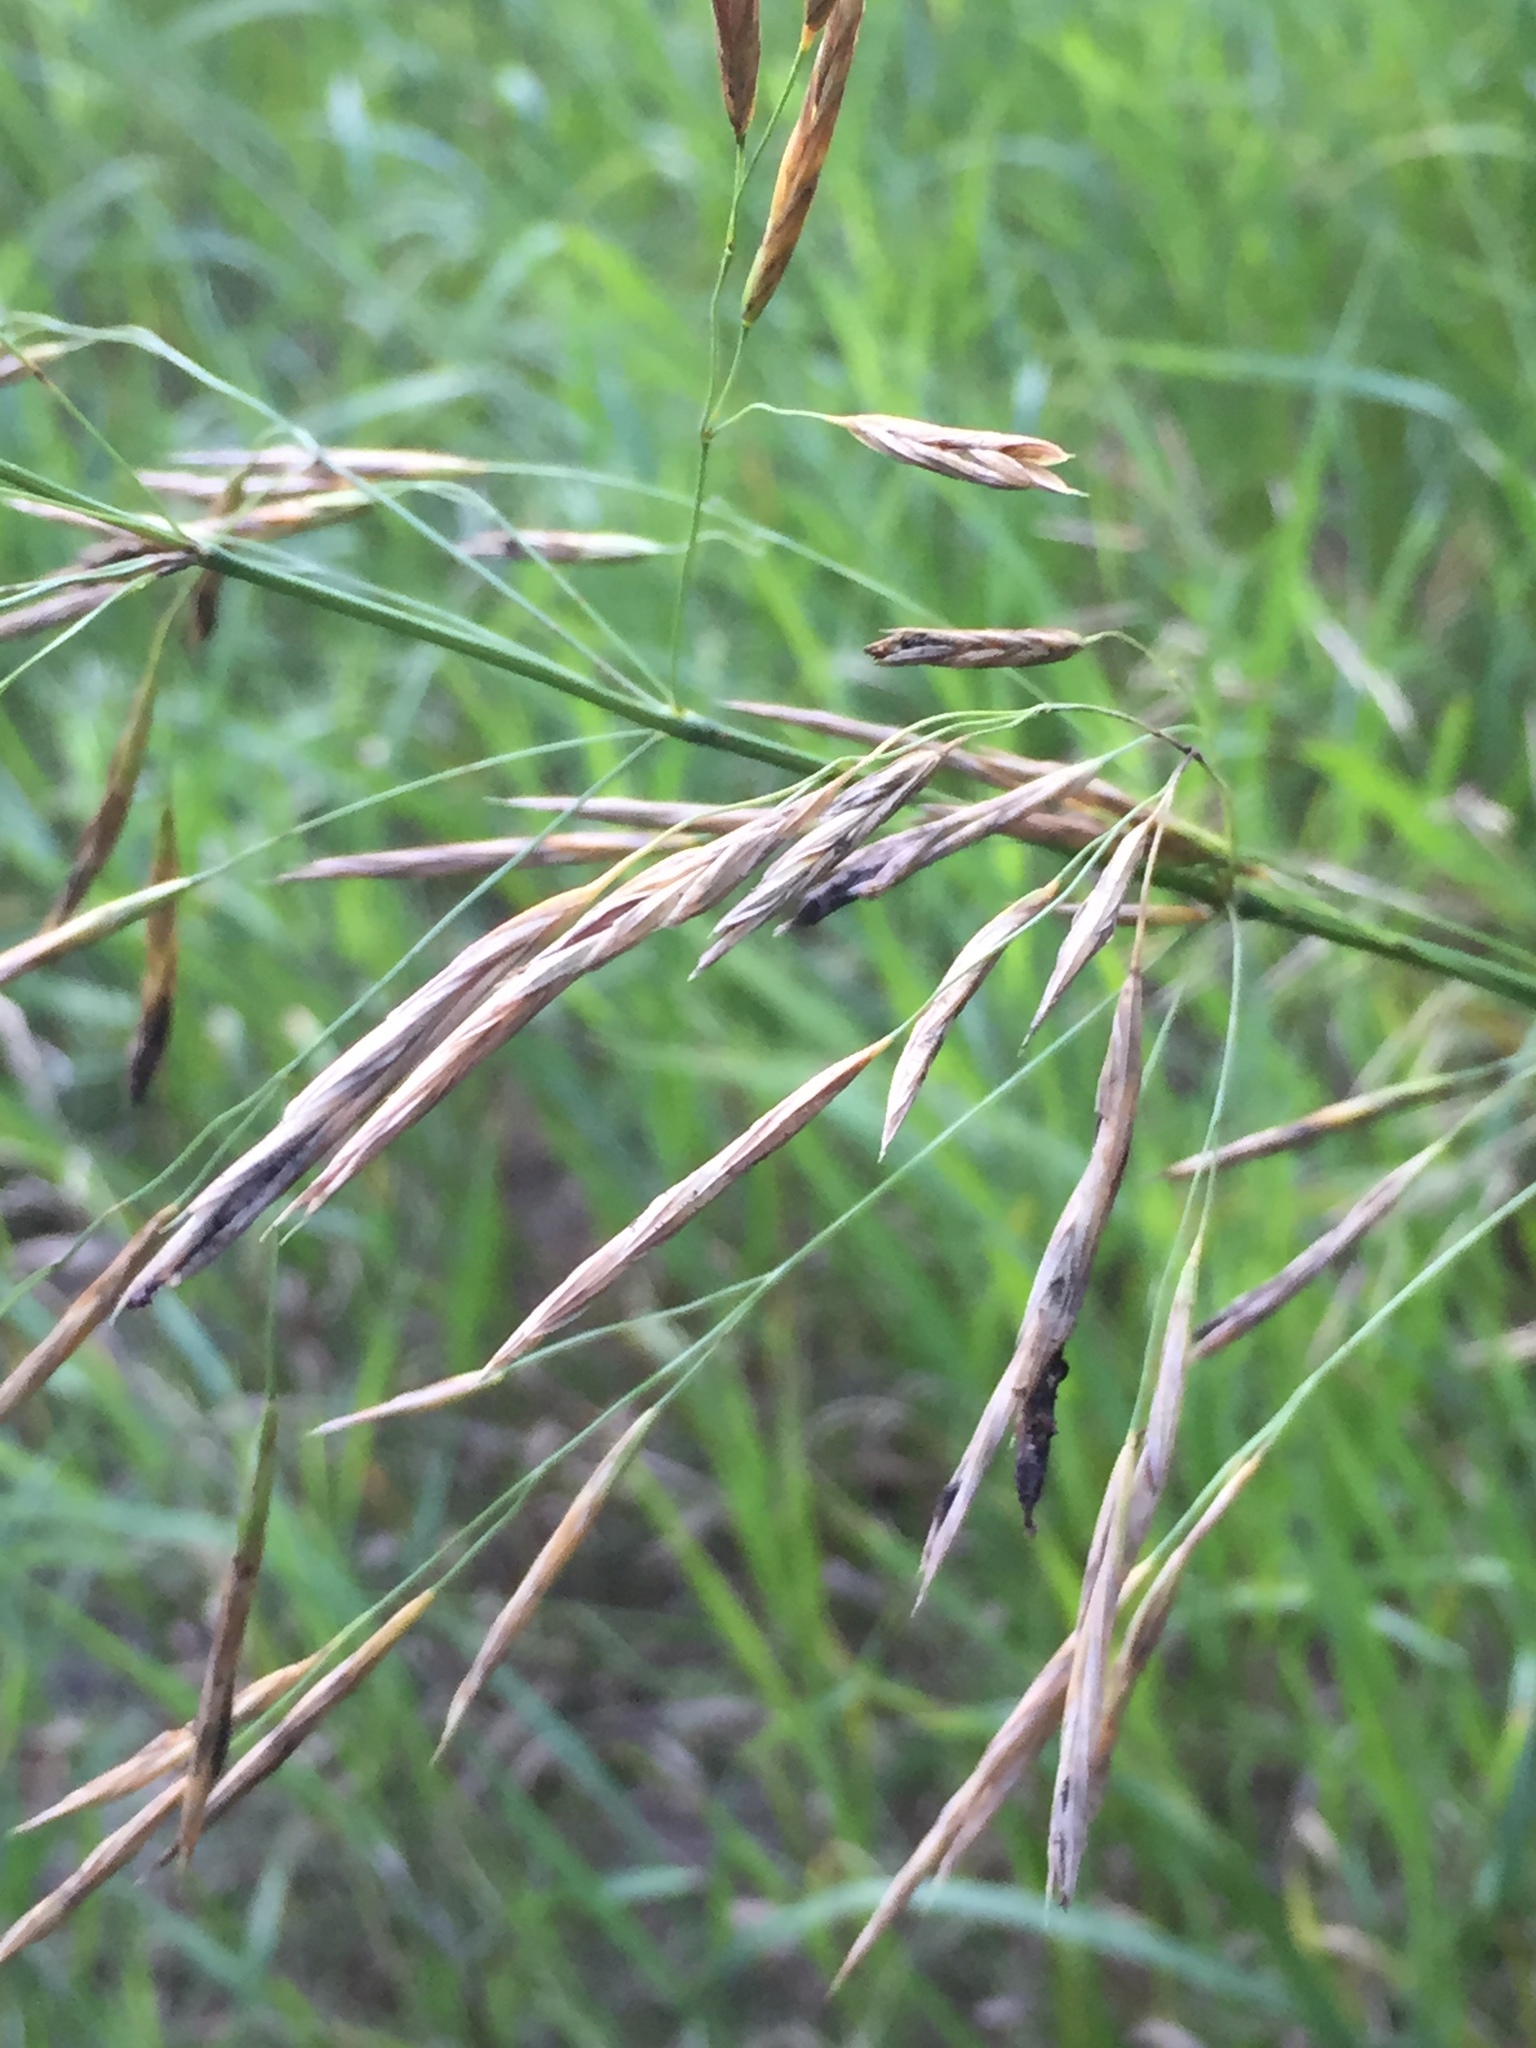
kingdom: Plantae
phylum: Tracheophyta
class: Liliopsida
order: Poales
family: Poaceae
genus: Bromus
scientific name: Bromus inermis
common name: Smooth brome
